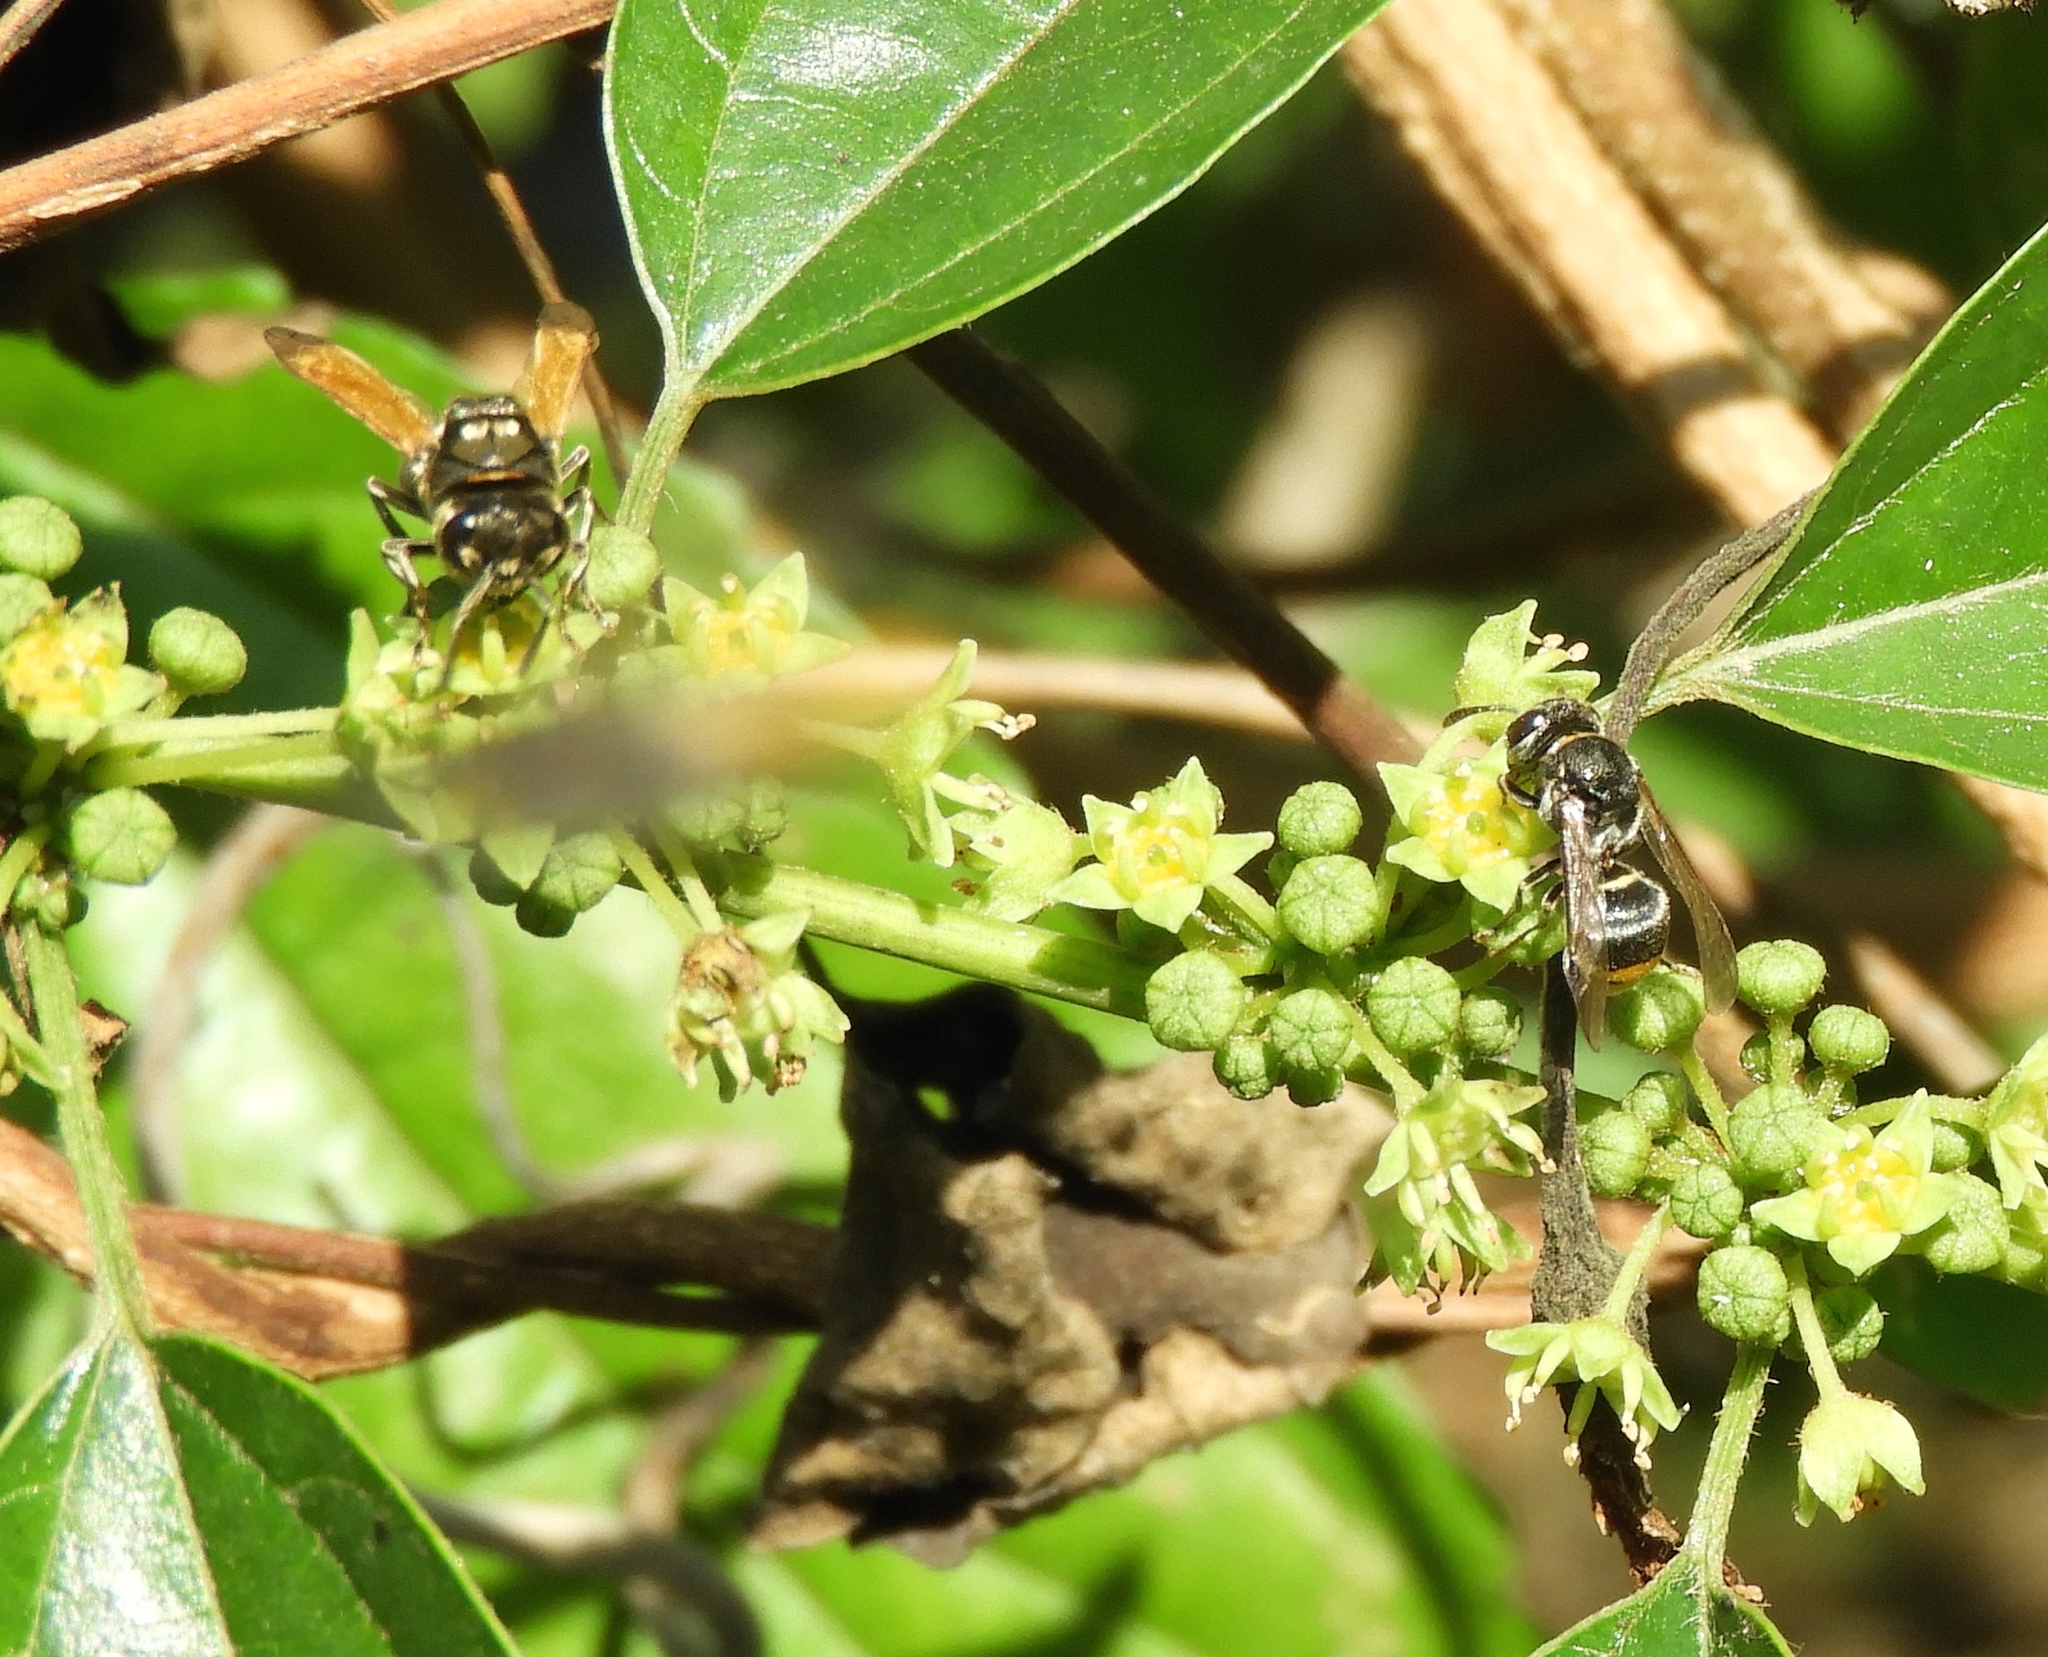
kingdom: Animalia
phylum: Arthropoda
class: Insecta
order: Hymenoptera
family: Vespidae
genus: Brachygastra
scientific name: Brachygastra mellifica
